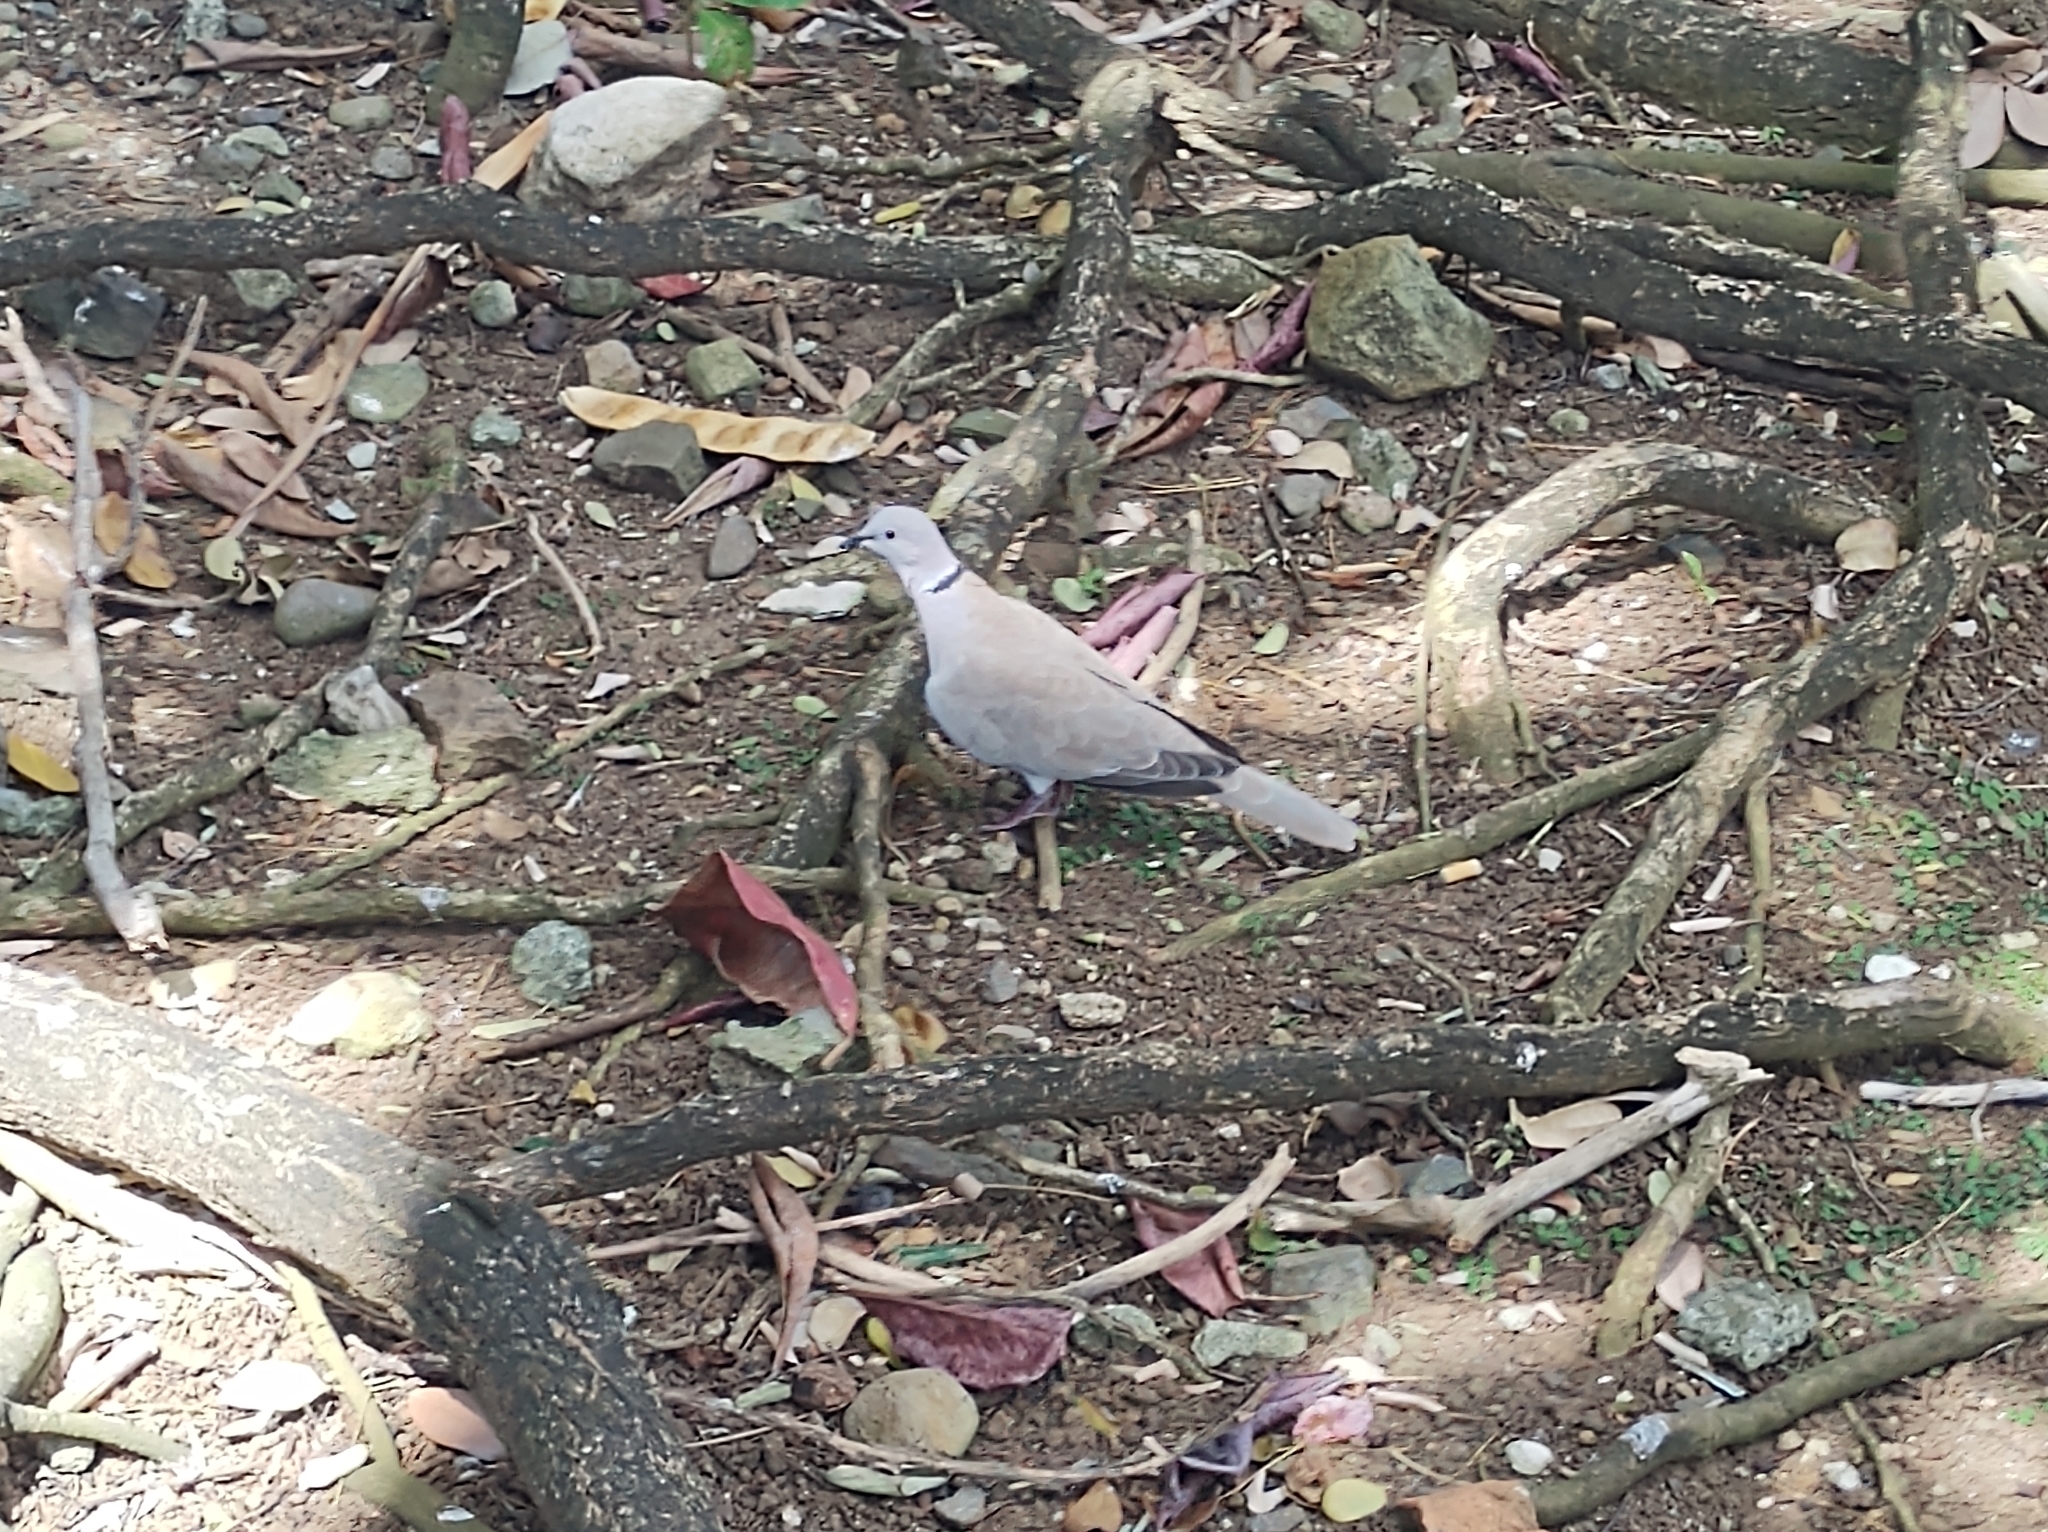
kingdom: Animalia
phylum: Chordata
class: Aves
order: Columbiformes
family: Columbidae
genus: Streptopelia
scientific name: Streptopelia decaocto
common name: Eurasian collared dove
